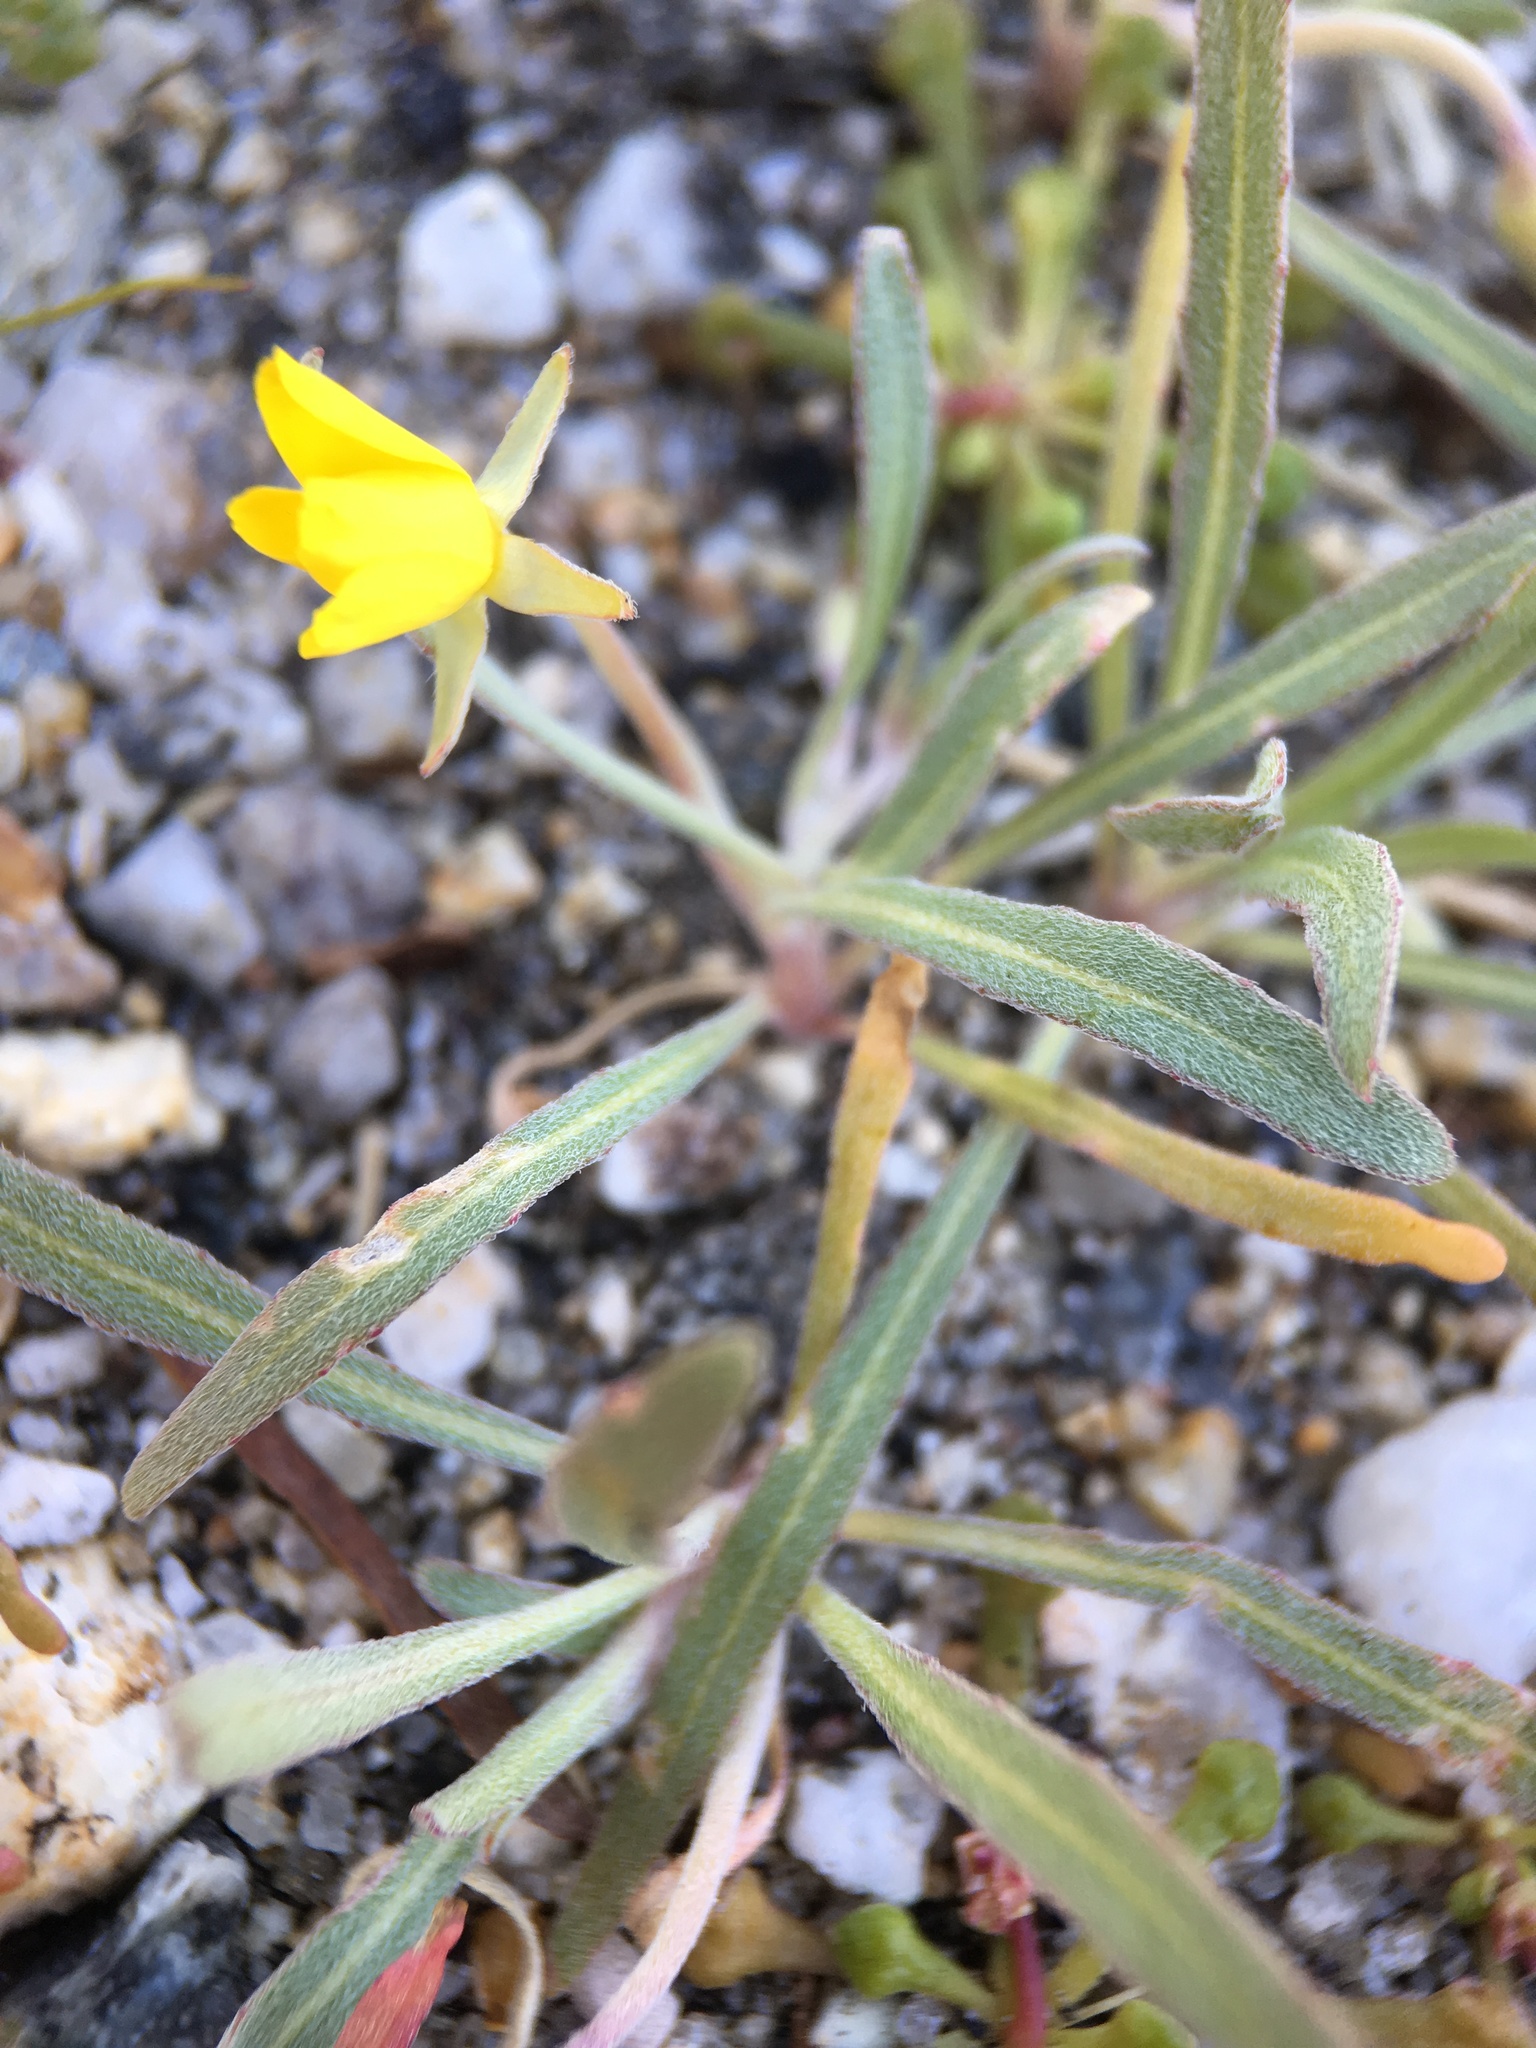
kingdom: Plantae
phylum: Tracheophyta
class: Magnoliopsida
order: Myrtales
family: Onagraceae
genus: Camissoniopsis
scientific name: Camissoniopsis pallida
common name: Paleyellow suncup
